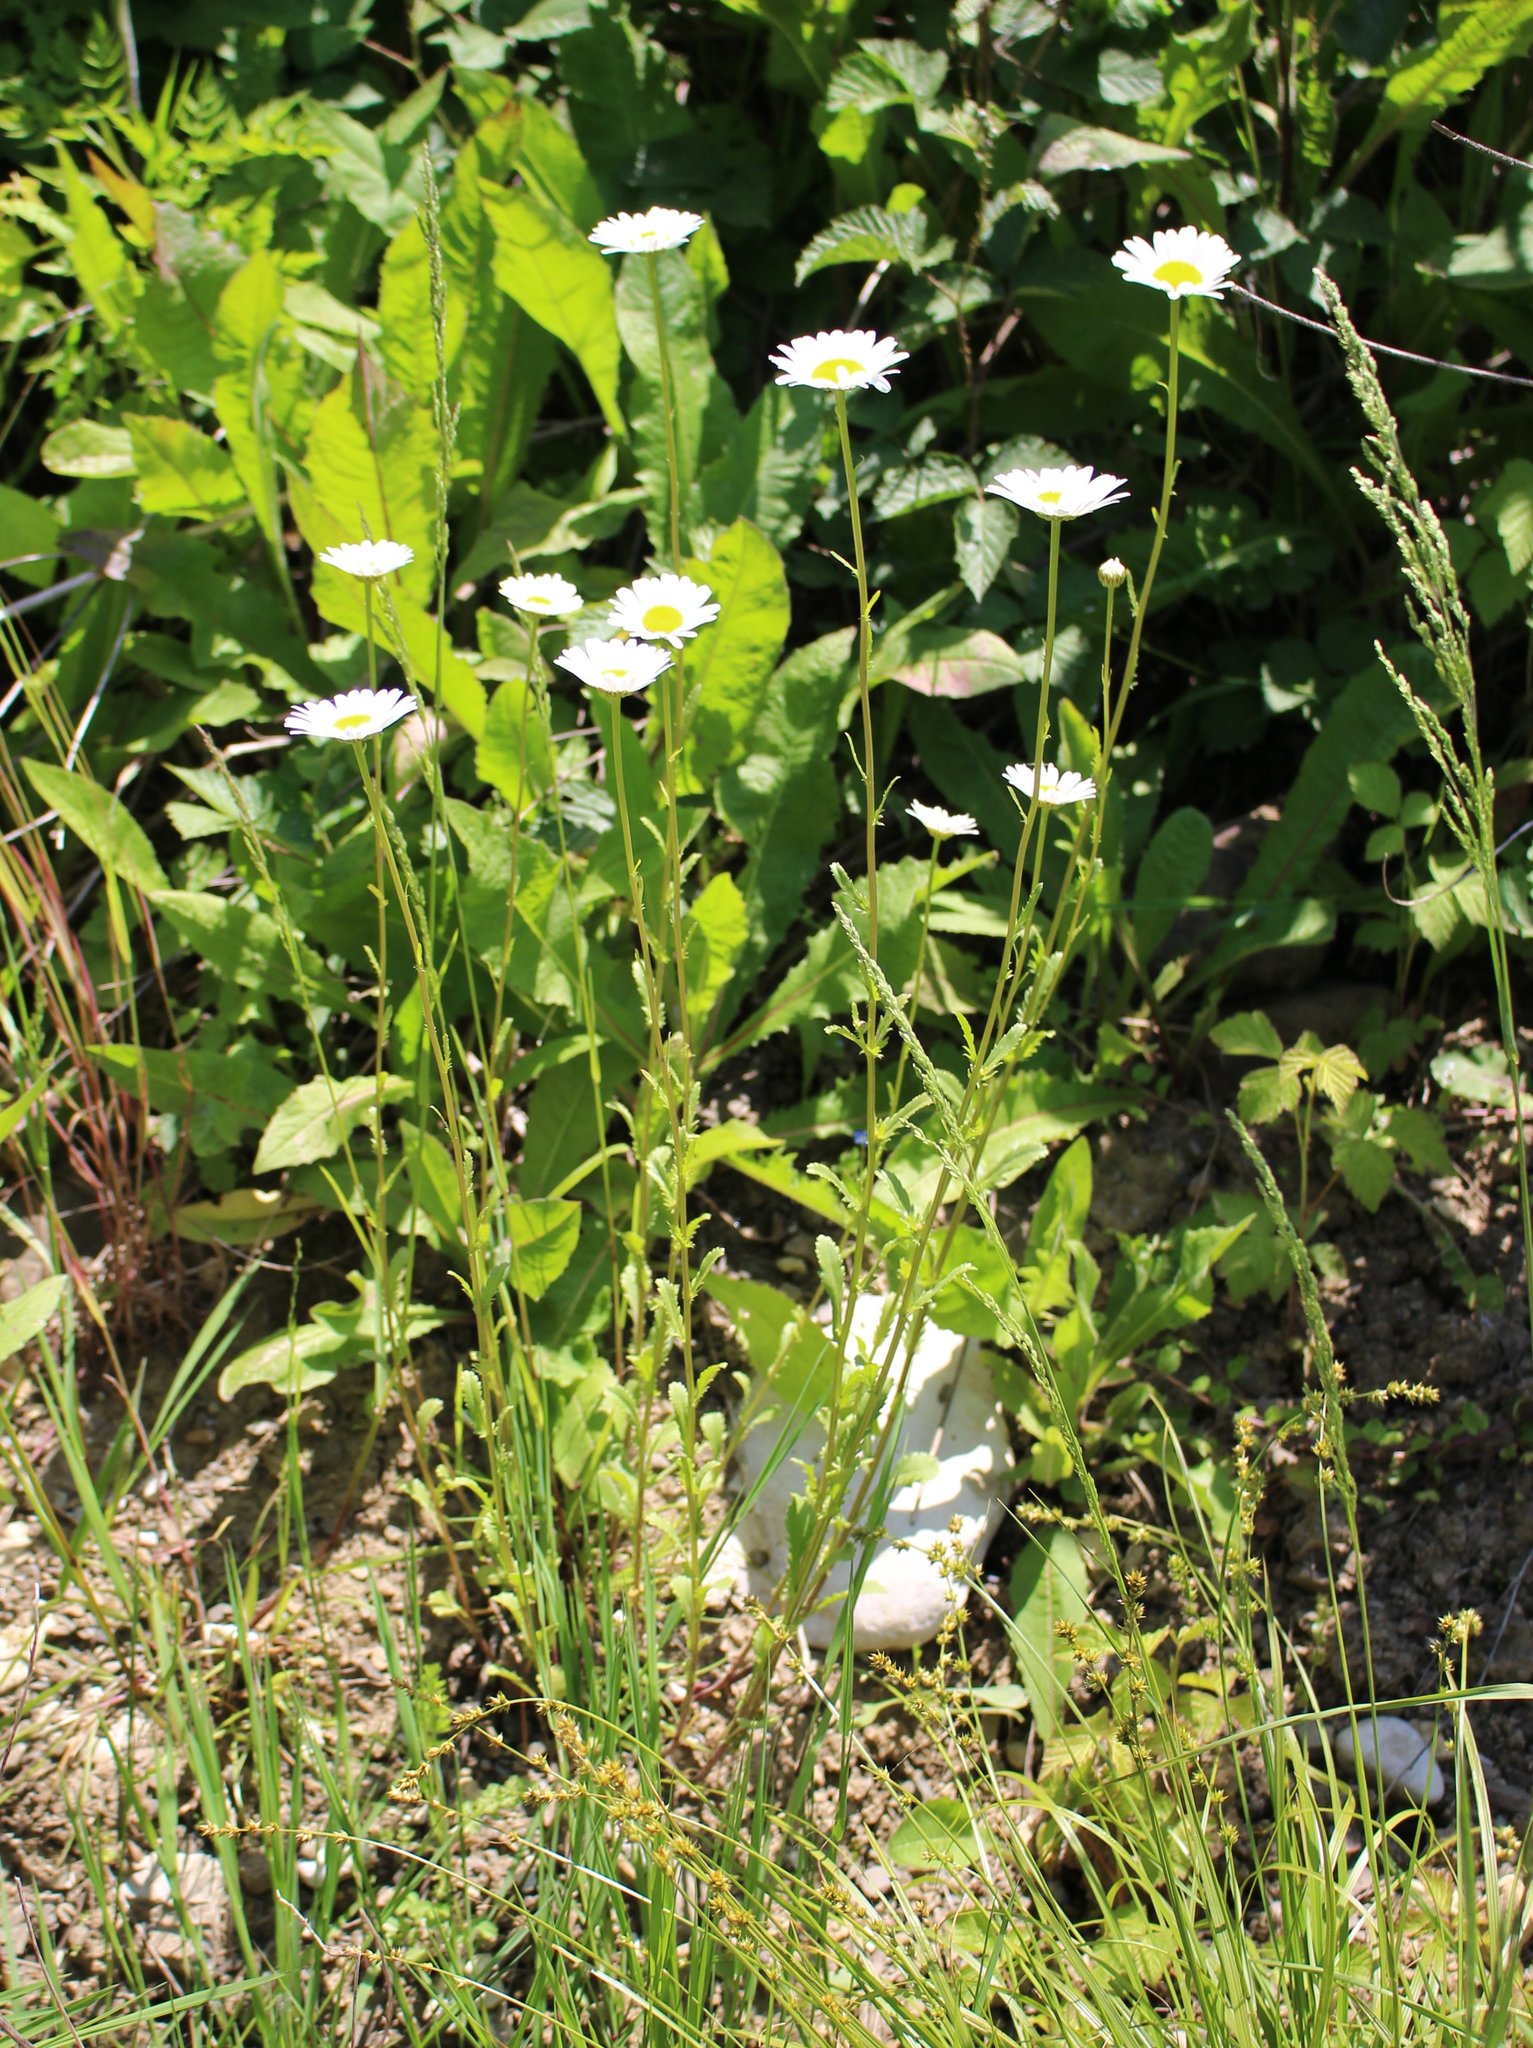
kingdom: Plantae
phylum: Tracheophyta
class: Magnoliopsida
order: Asterales
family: Asteraceae
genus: Leucanthemum
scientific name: Leucanthemum vulgare
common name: Oxeye daisy
